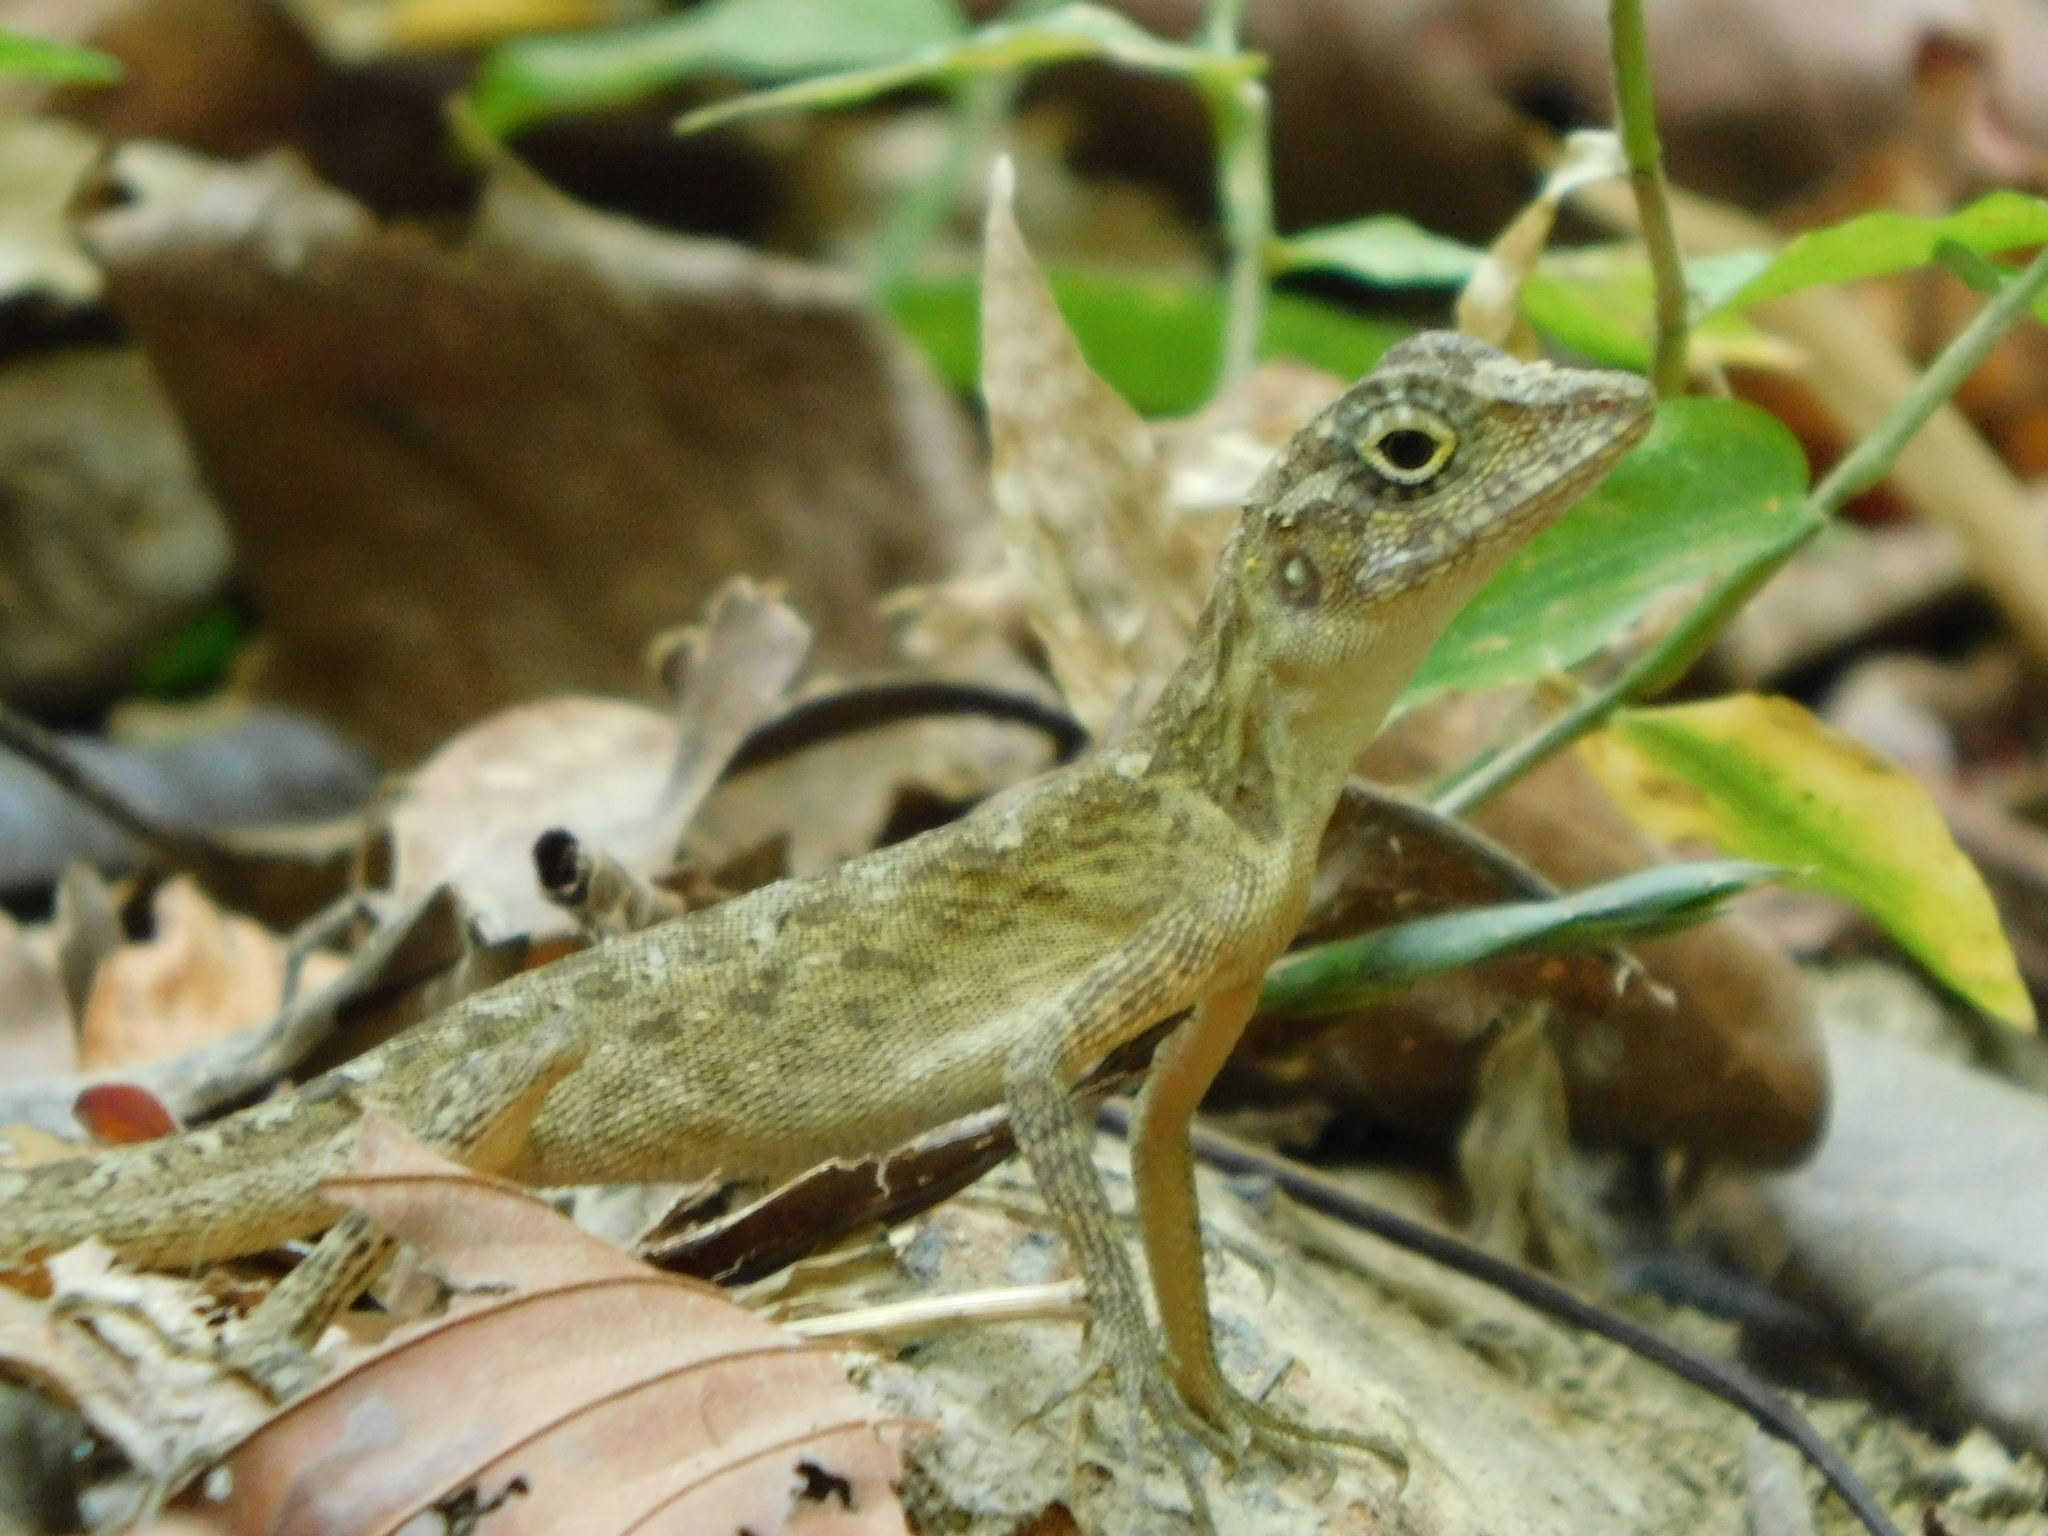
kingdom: Animalia
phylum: Chordata
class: Squamata
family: Agamidae
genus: Coryphophylax
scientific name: Coryphophylax subcristatus
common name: Short-crested bay island forest lizard
